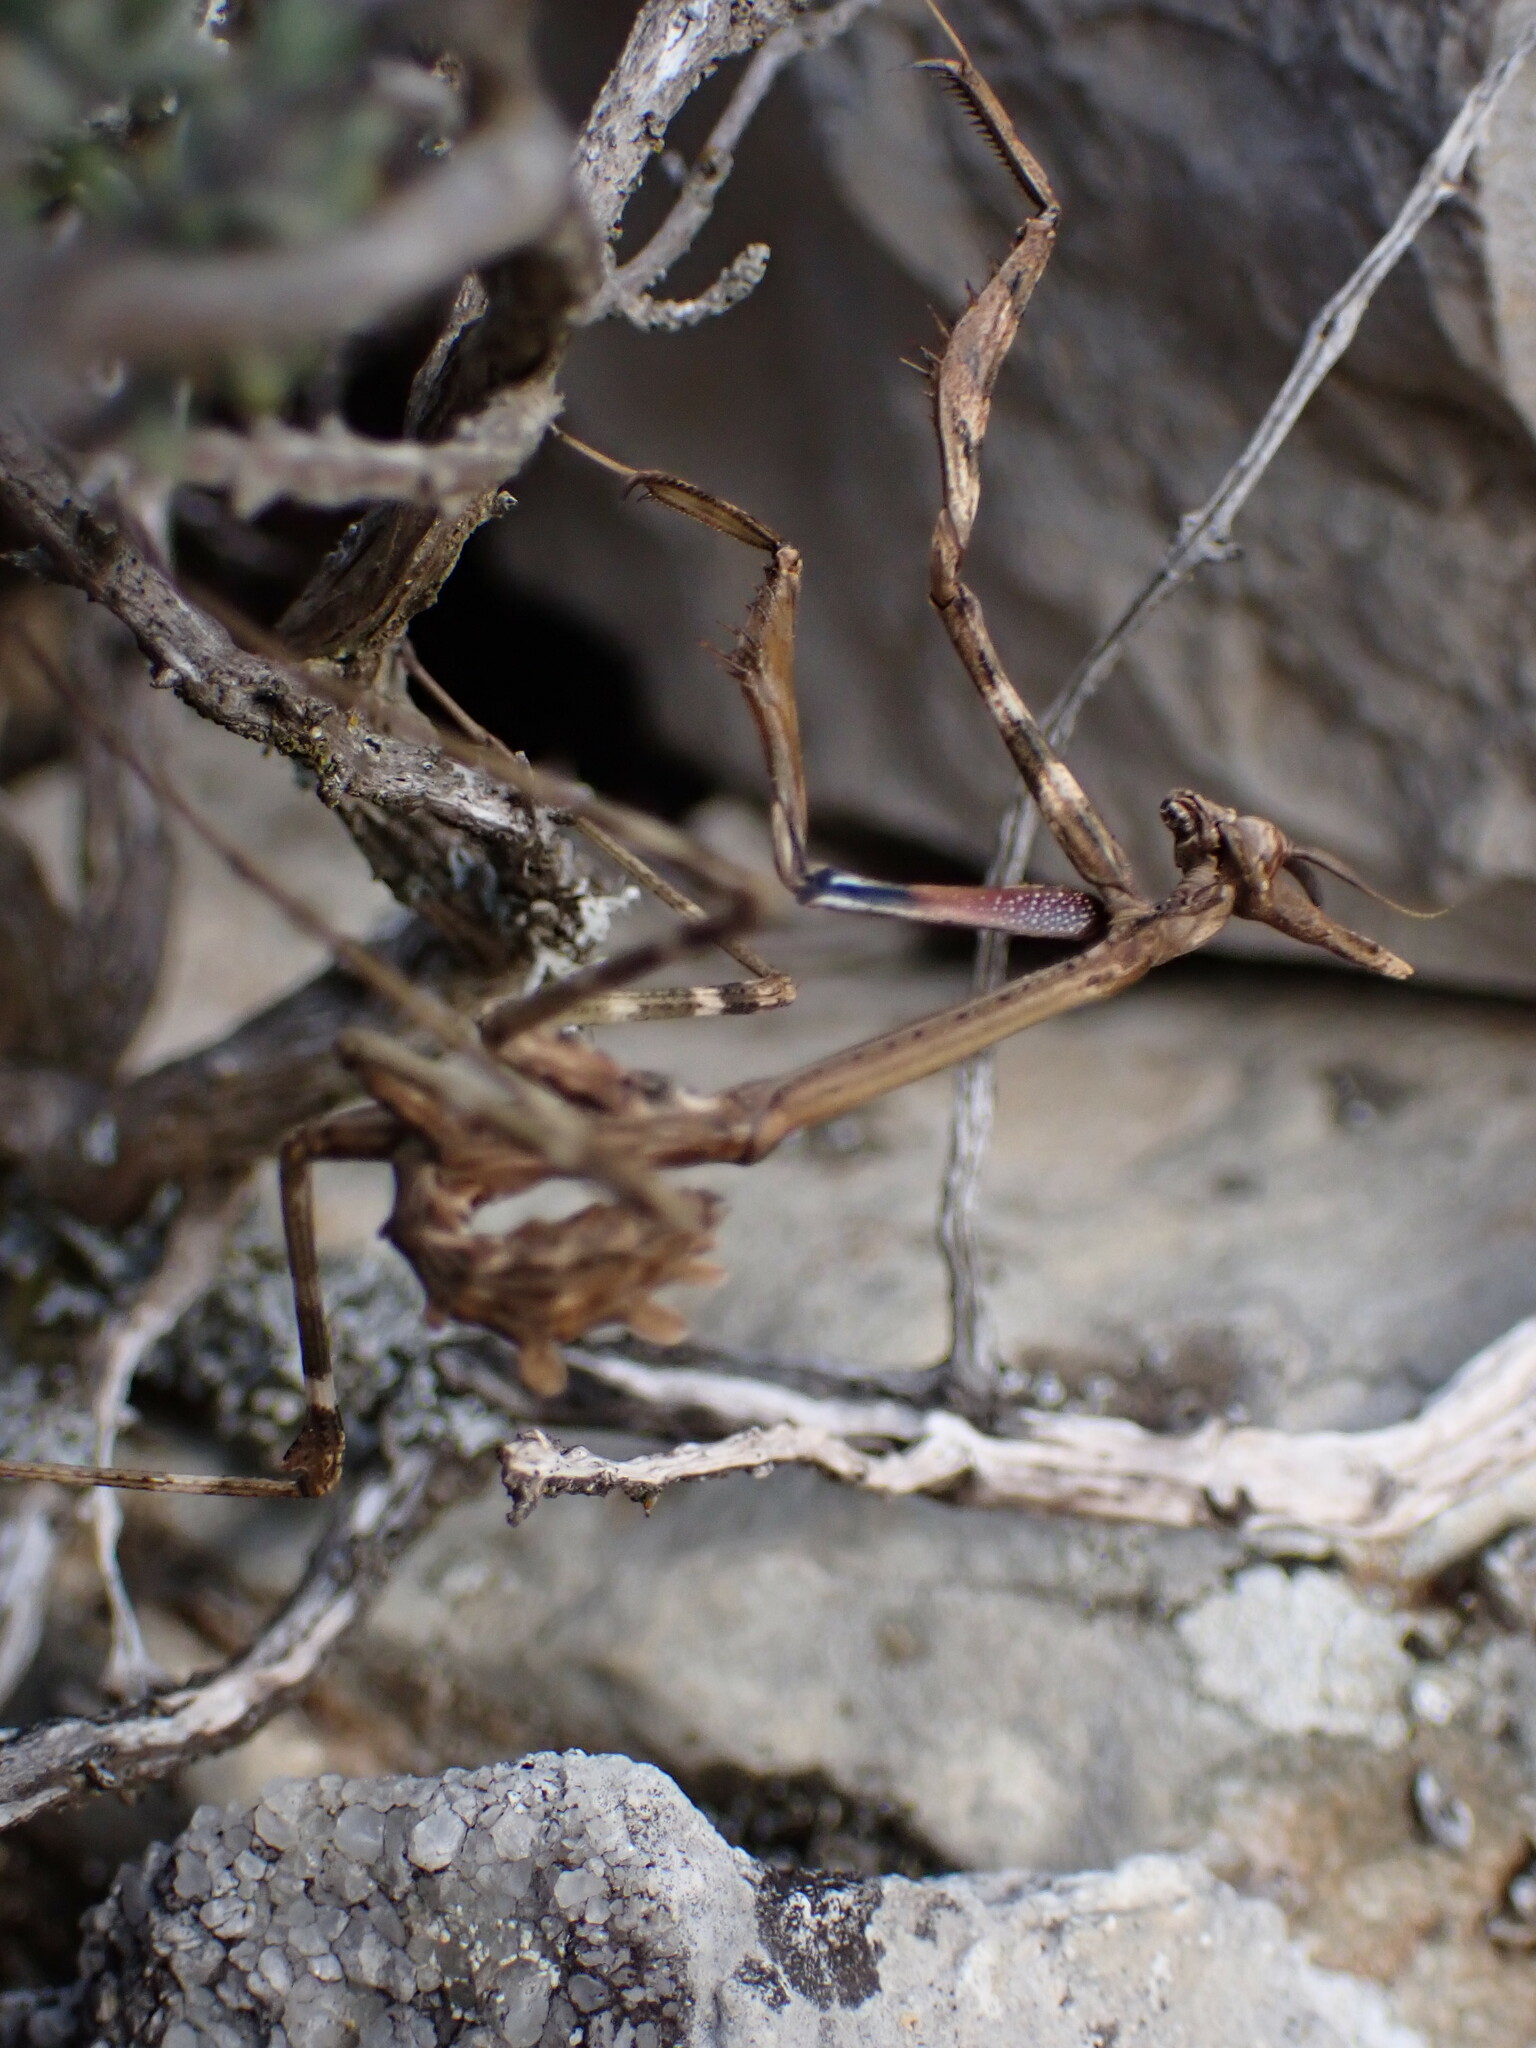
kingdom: Animalia
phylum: Arthropoda
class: Insecta
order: Mantodea
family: Empusidae
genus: Empusa
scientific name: Empusa pennata
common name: Conehead mantis
